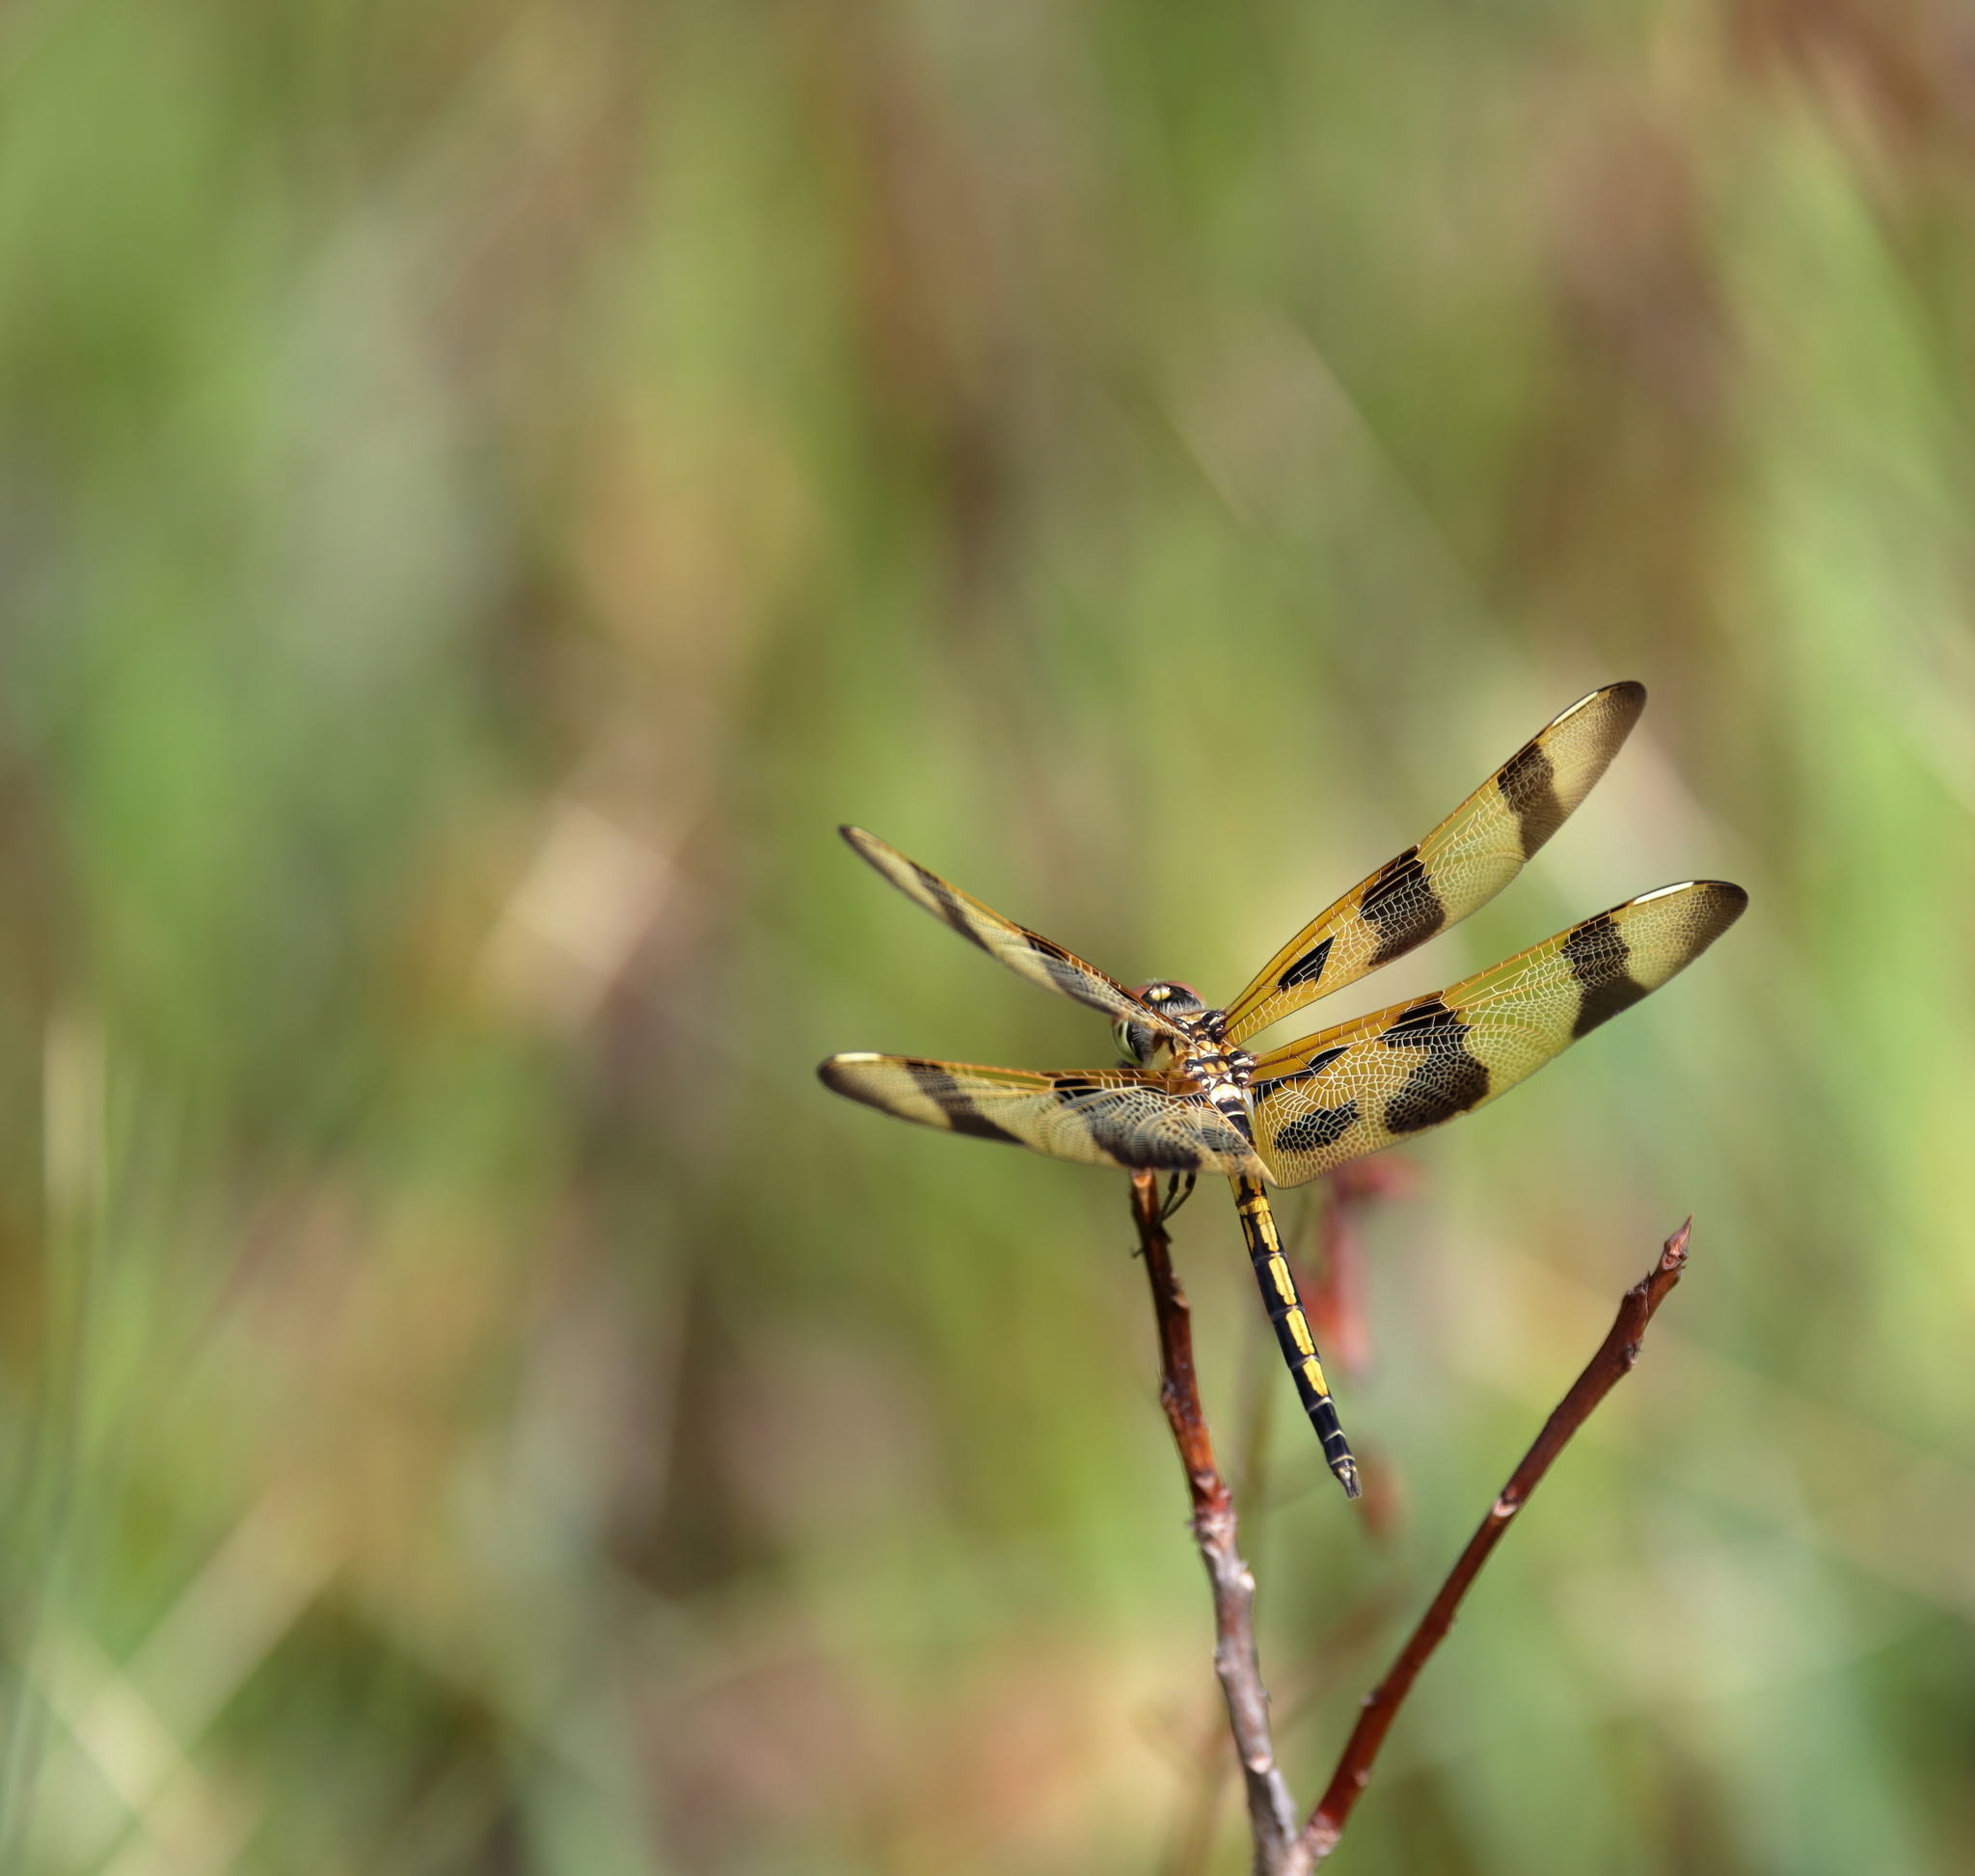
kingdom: Animalia
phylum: Arthropoda
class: Insecta
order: Odonata
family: Libellulidae
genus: Celithemis
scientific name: Celithemis eponina
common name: Halloween pennant
